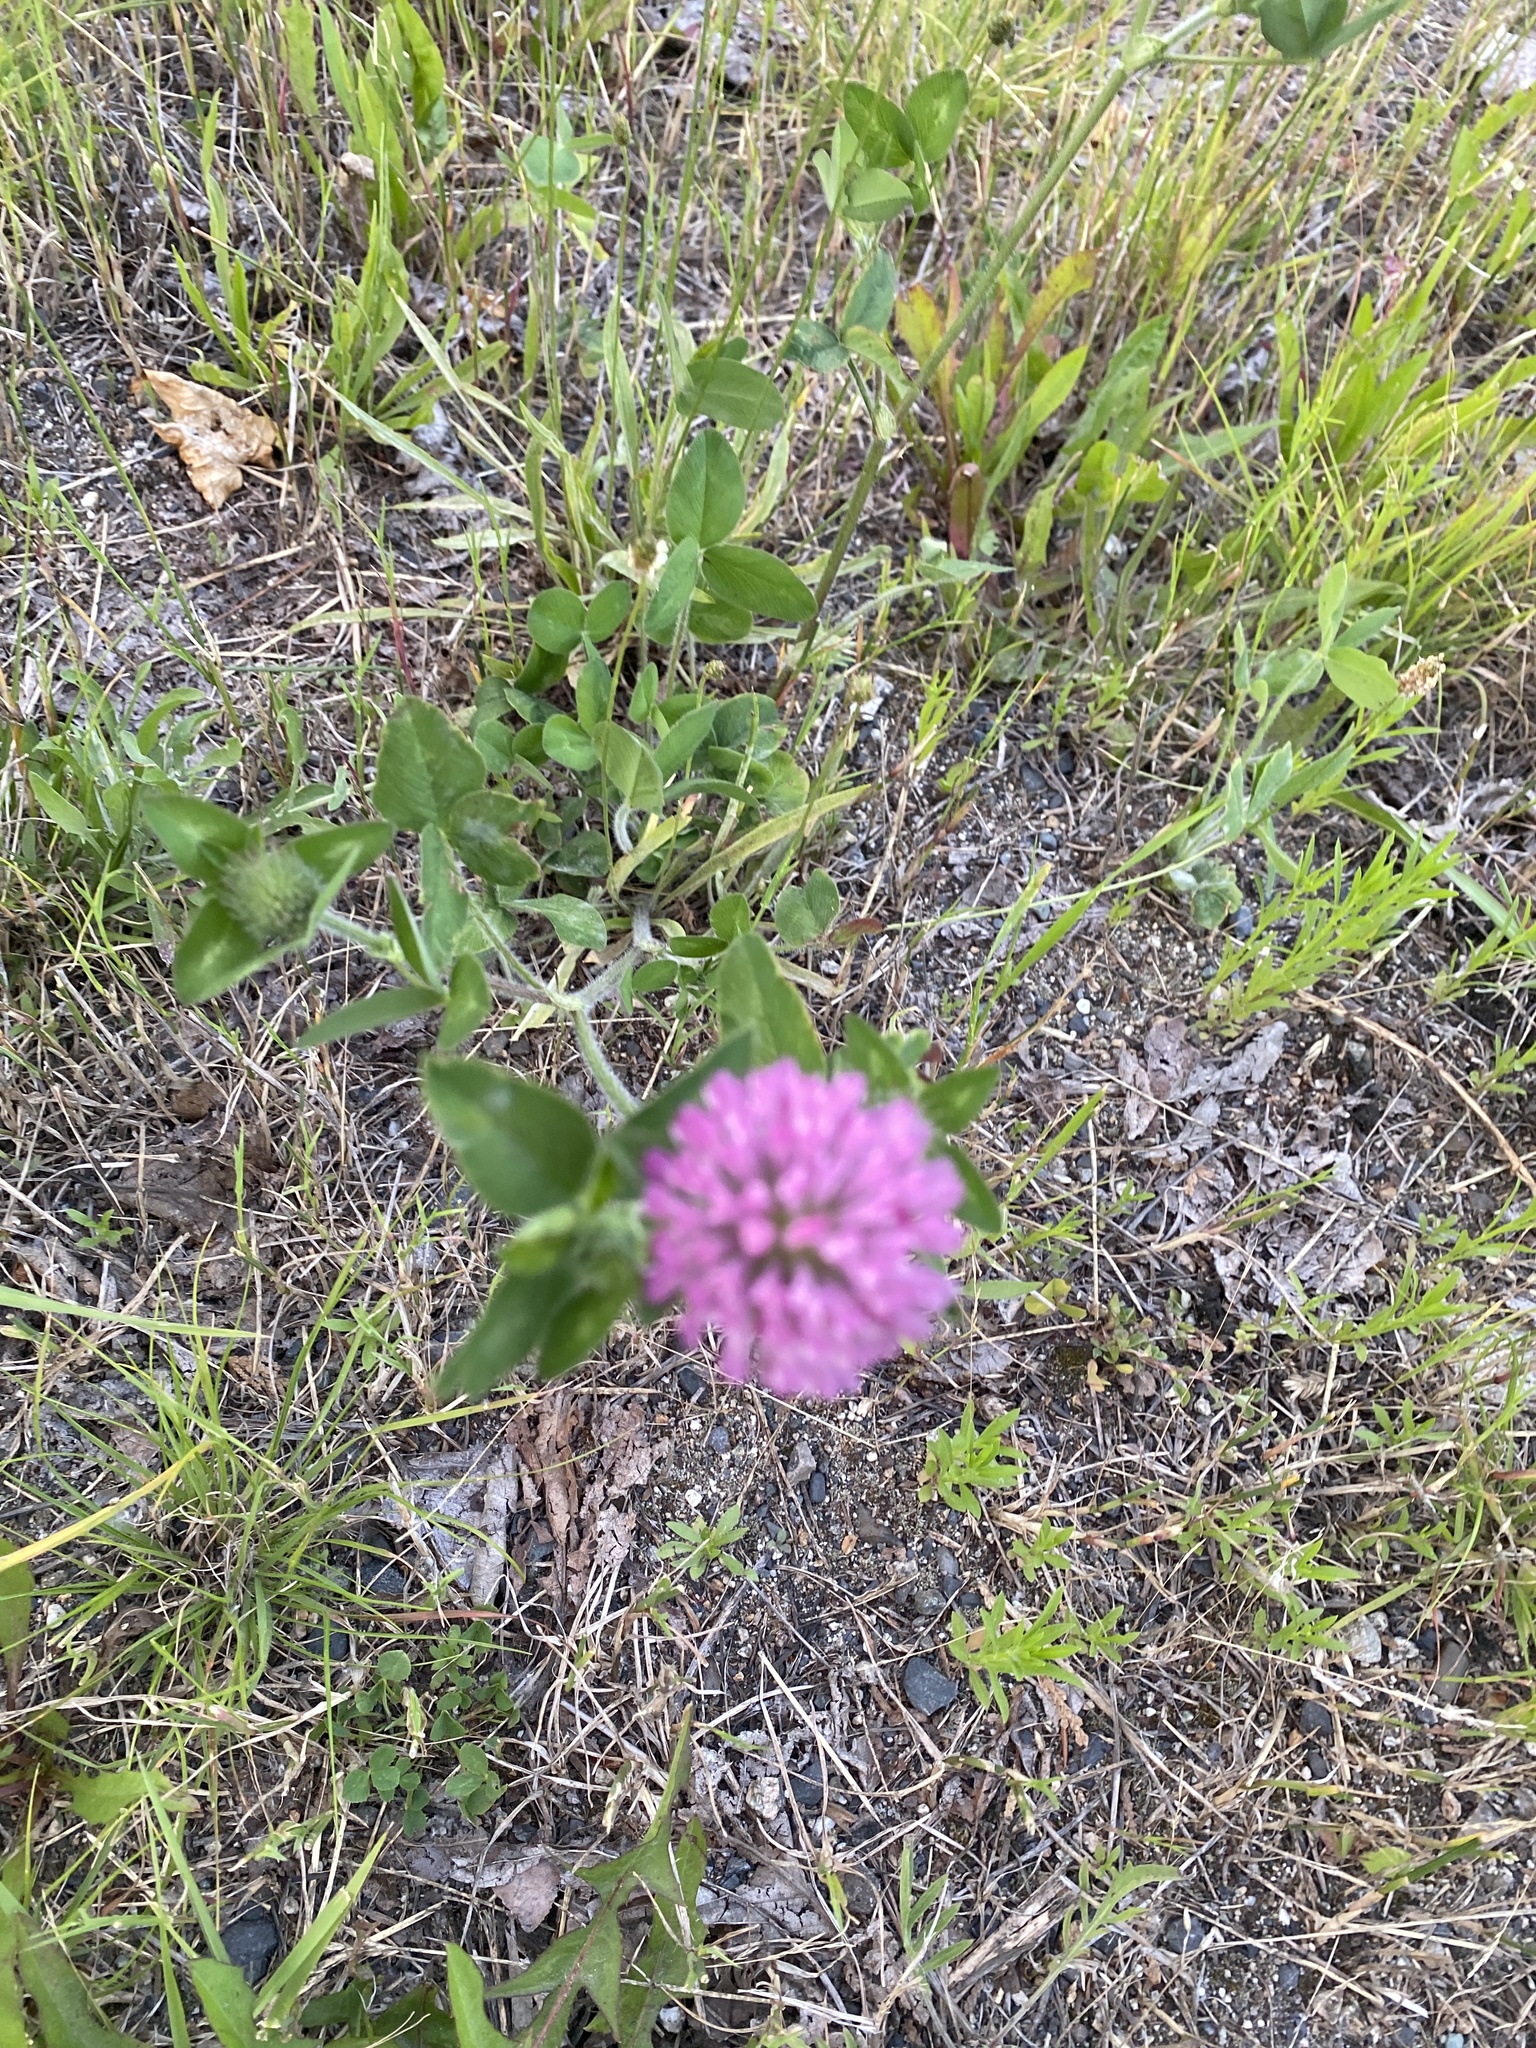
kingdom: Plantae
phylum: Tracheophyta
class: Magnoliopsida
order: Fabales
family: Fabaceae
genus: Trifolium
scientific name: Trifolium pratense
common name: Red clover
